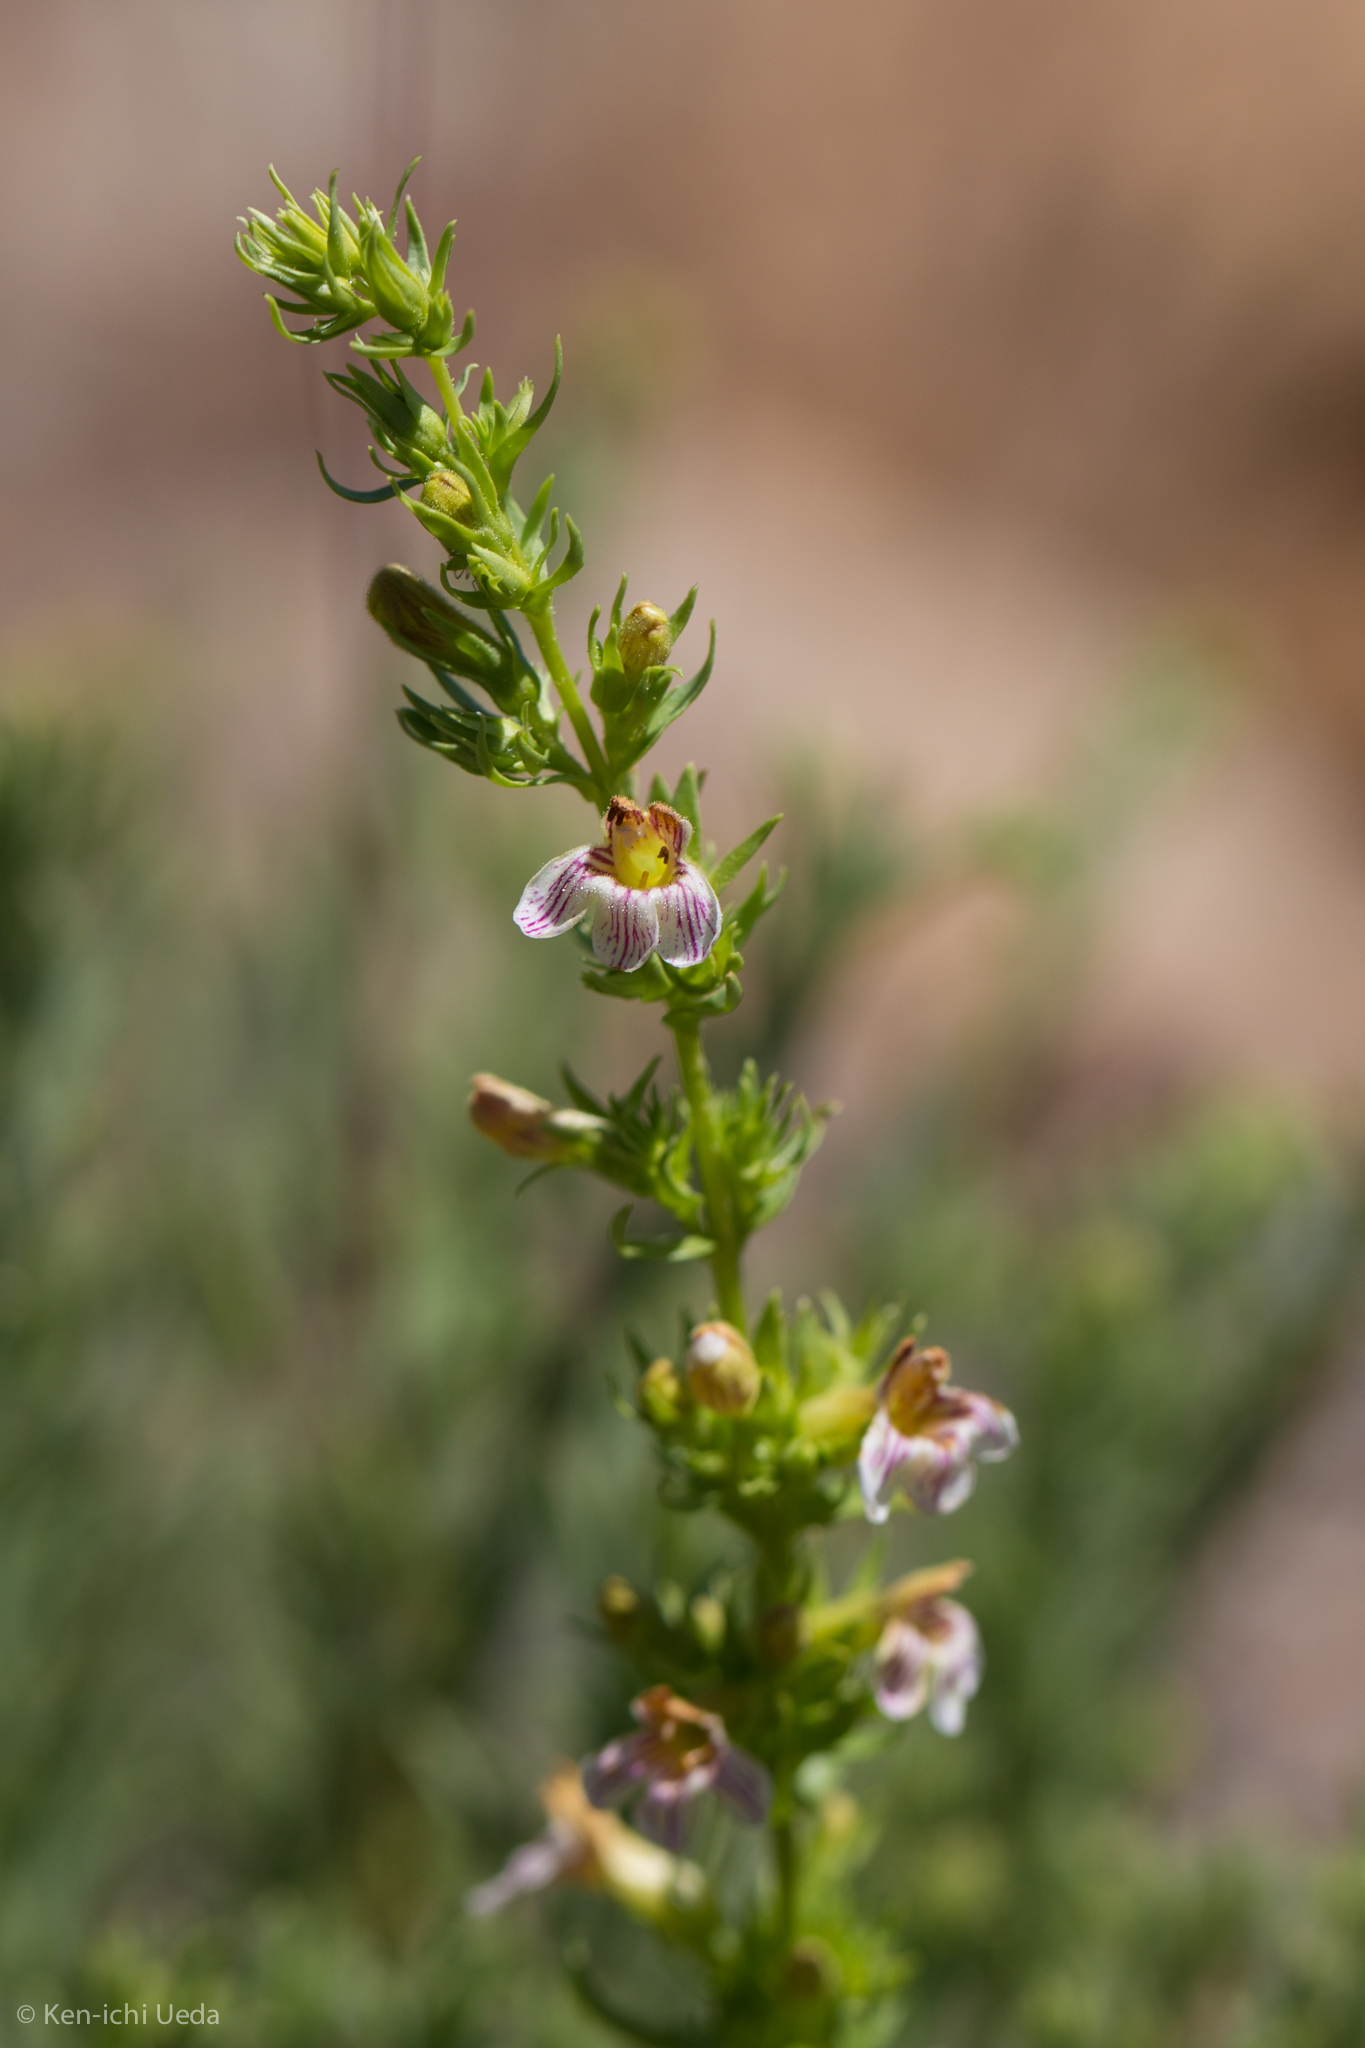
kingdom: Plantae
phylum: Tracheophyta
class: Magnoliopsida
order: Lamiales
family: Plantaginaceae
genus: Penstemon
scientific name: Penstemon deustus
